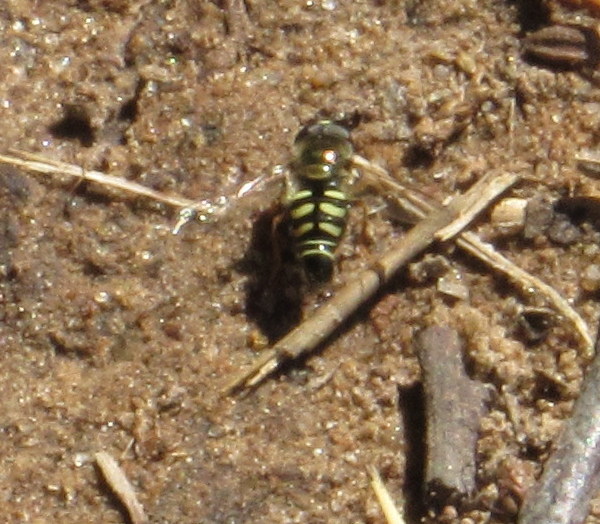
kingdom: Animalia
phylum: Arthropoda
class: Insecta
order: Diptera
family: Syrphidae
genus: Eupeodes
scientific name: Eupeodes volucris
